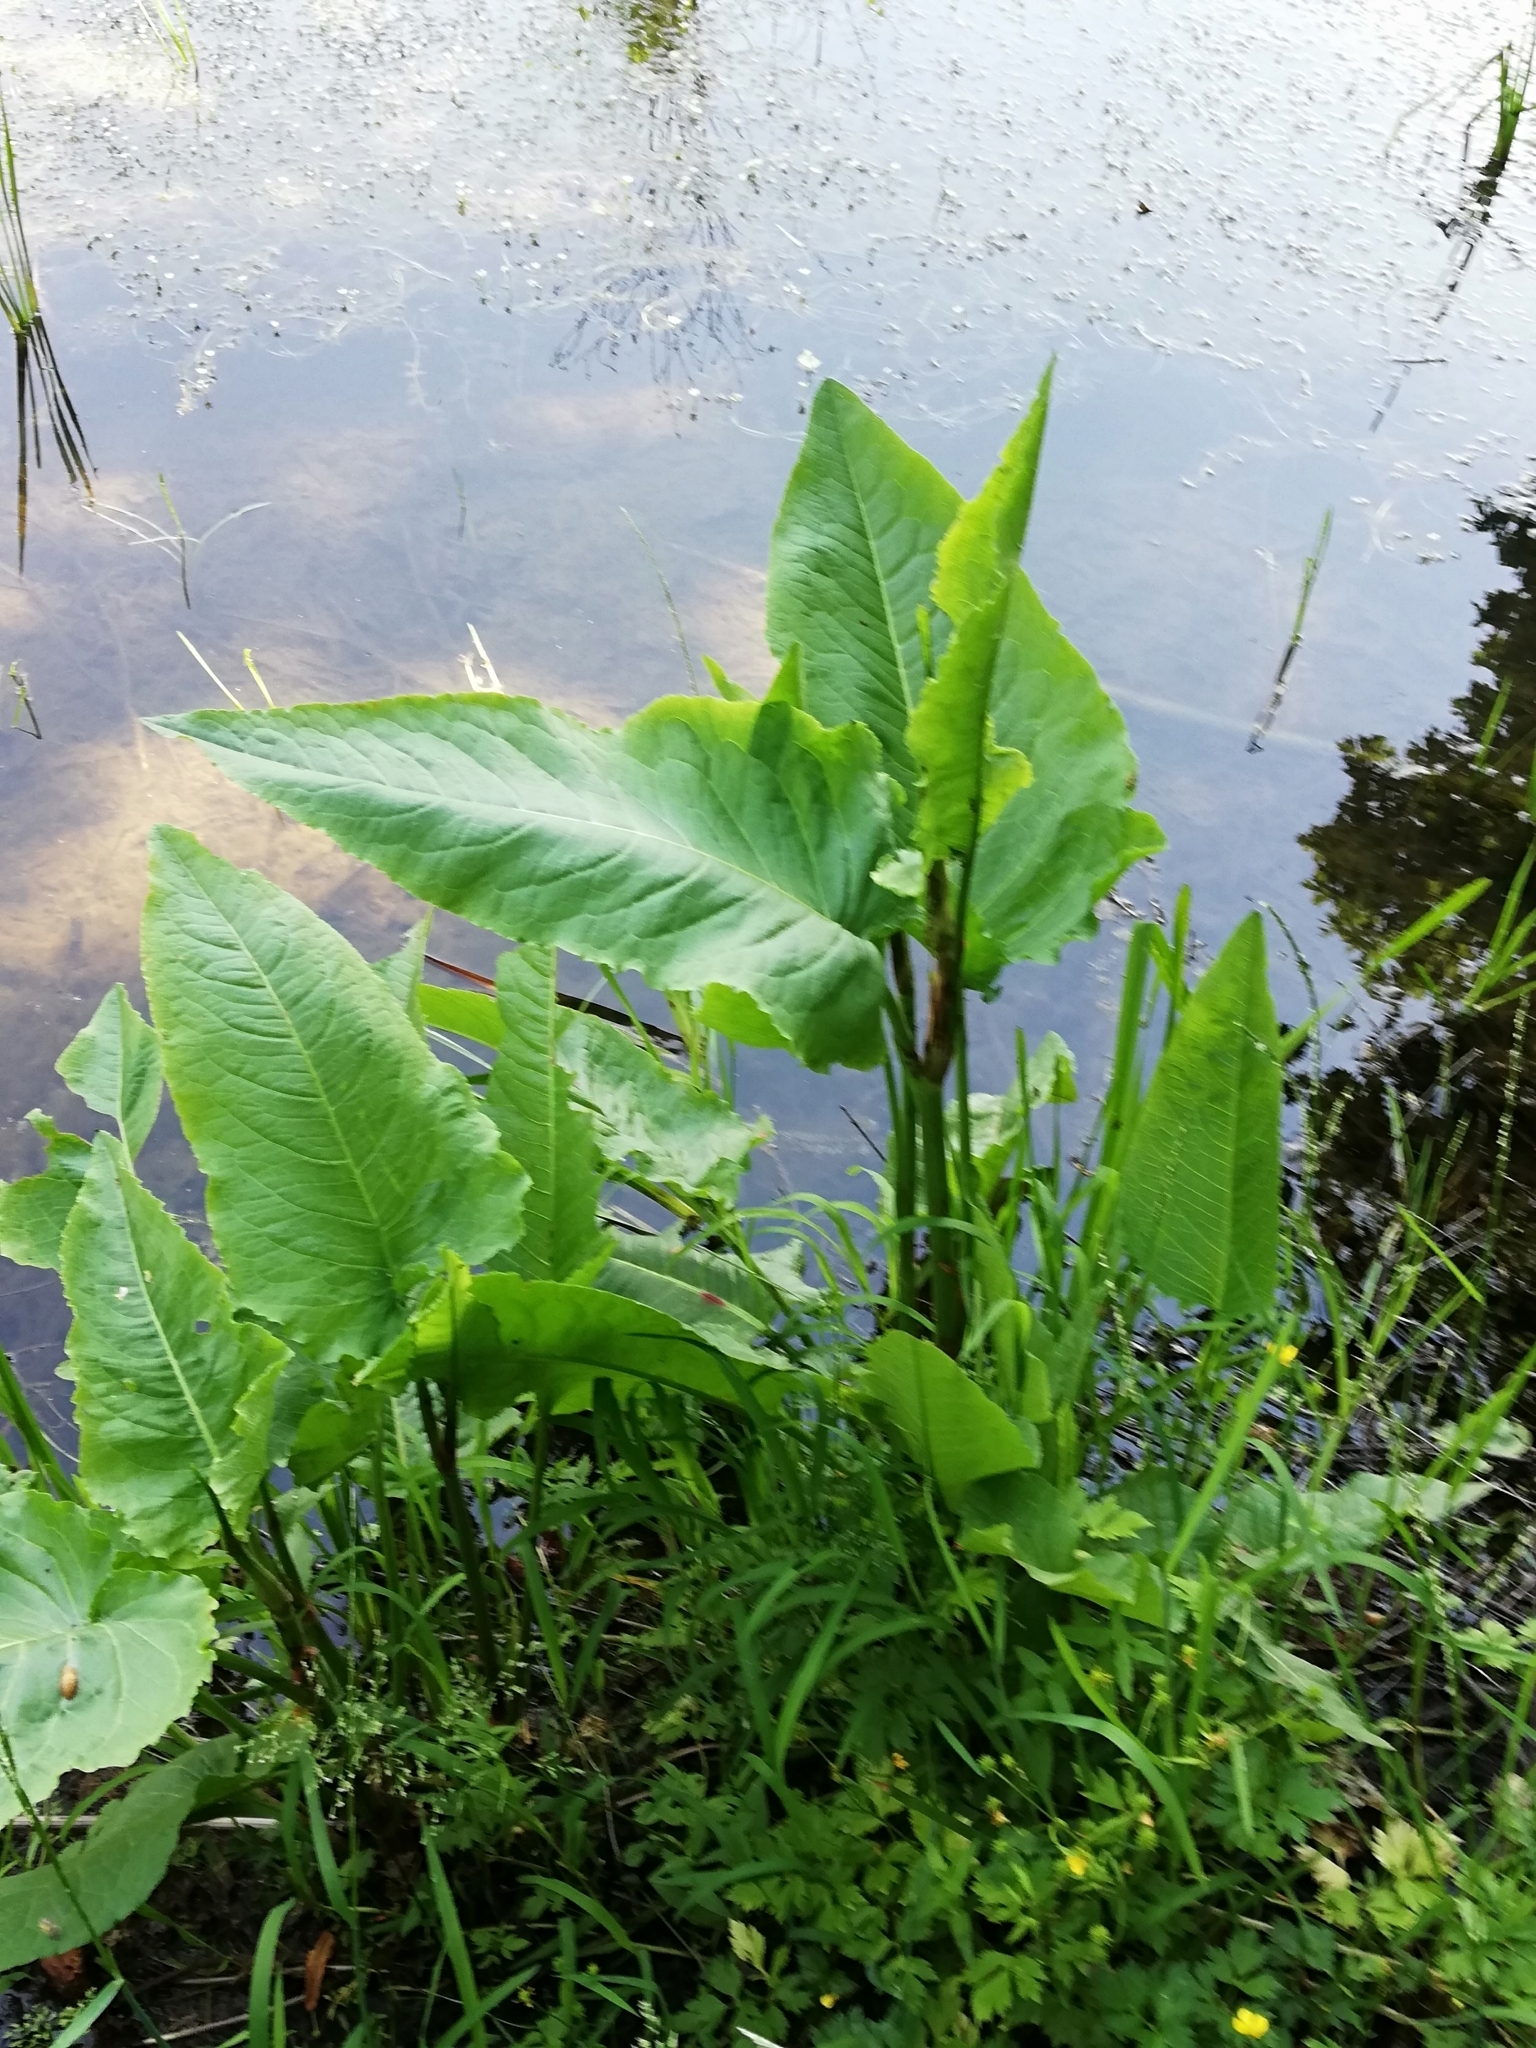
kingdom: Plantae
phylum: Tracheophyta
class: Magnoliopsida
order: Caryophyllales
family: Polygonaceae
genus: Rumex
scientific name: Rumex aquaticus
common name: Scottish dock
